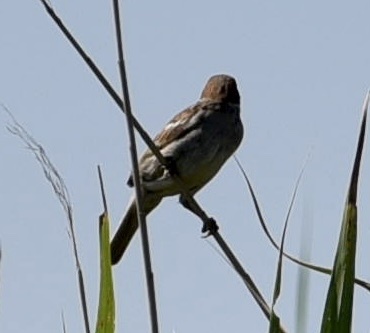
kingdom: Animalia
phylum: Chordata
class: Aves
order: Passeriformes
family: Passeridae
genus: Passer
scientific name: Passer montanus
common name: Eurasian tree sparrow
